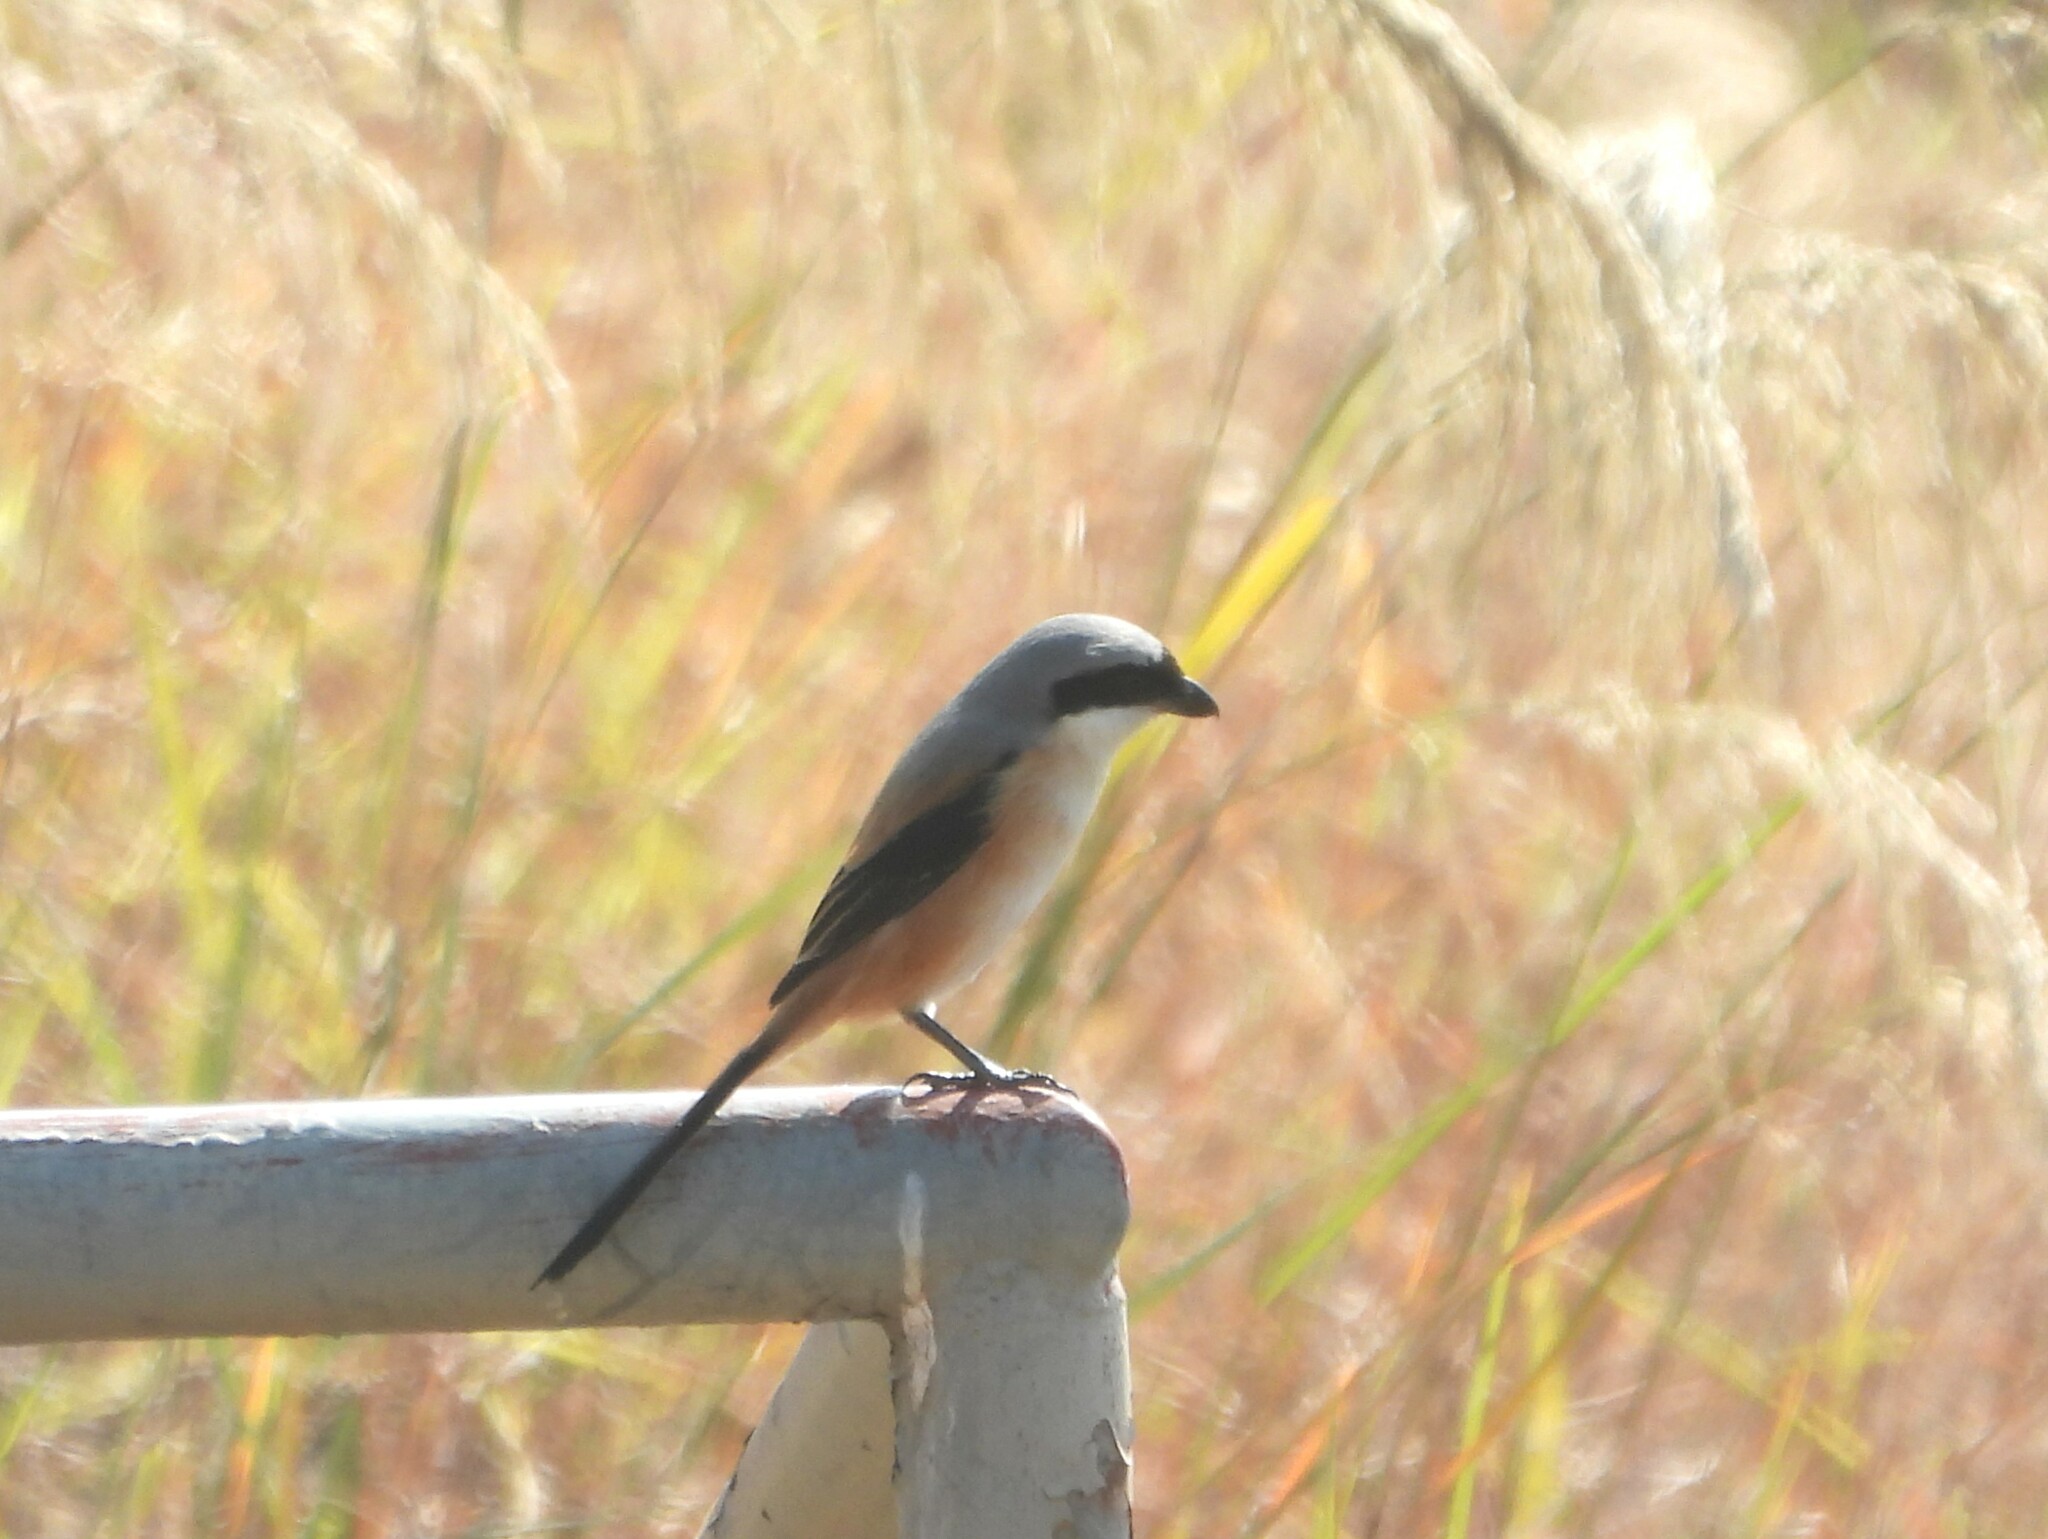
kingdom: Animalia
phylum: Chordata
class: Aves
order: Passeriformes
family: Laniidae
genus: Lanius
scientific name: Lanius schach
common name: Long-tailed shrike
